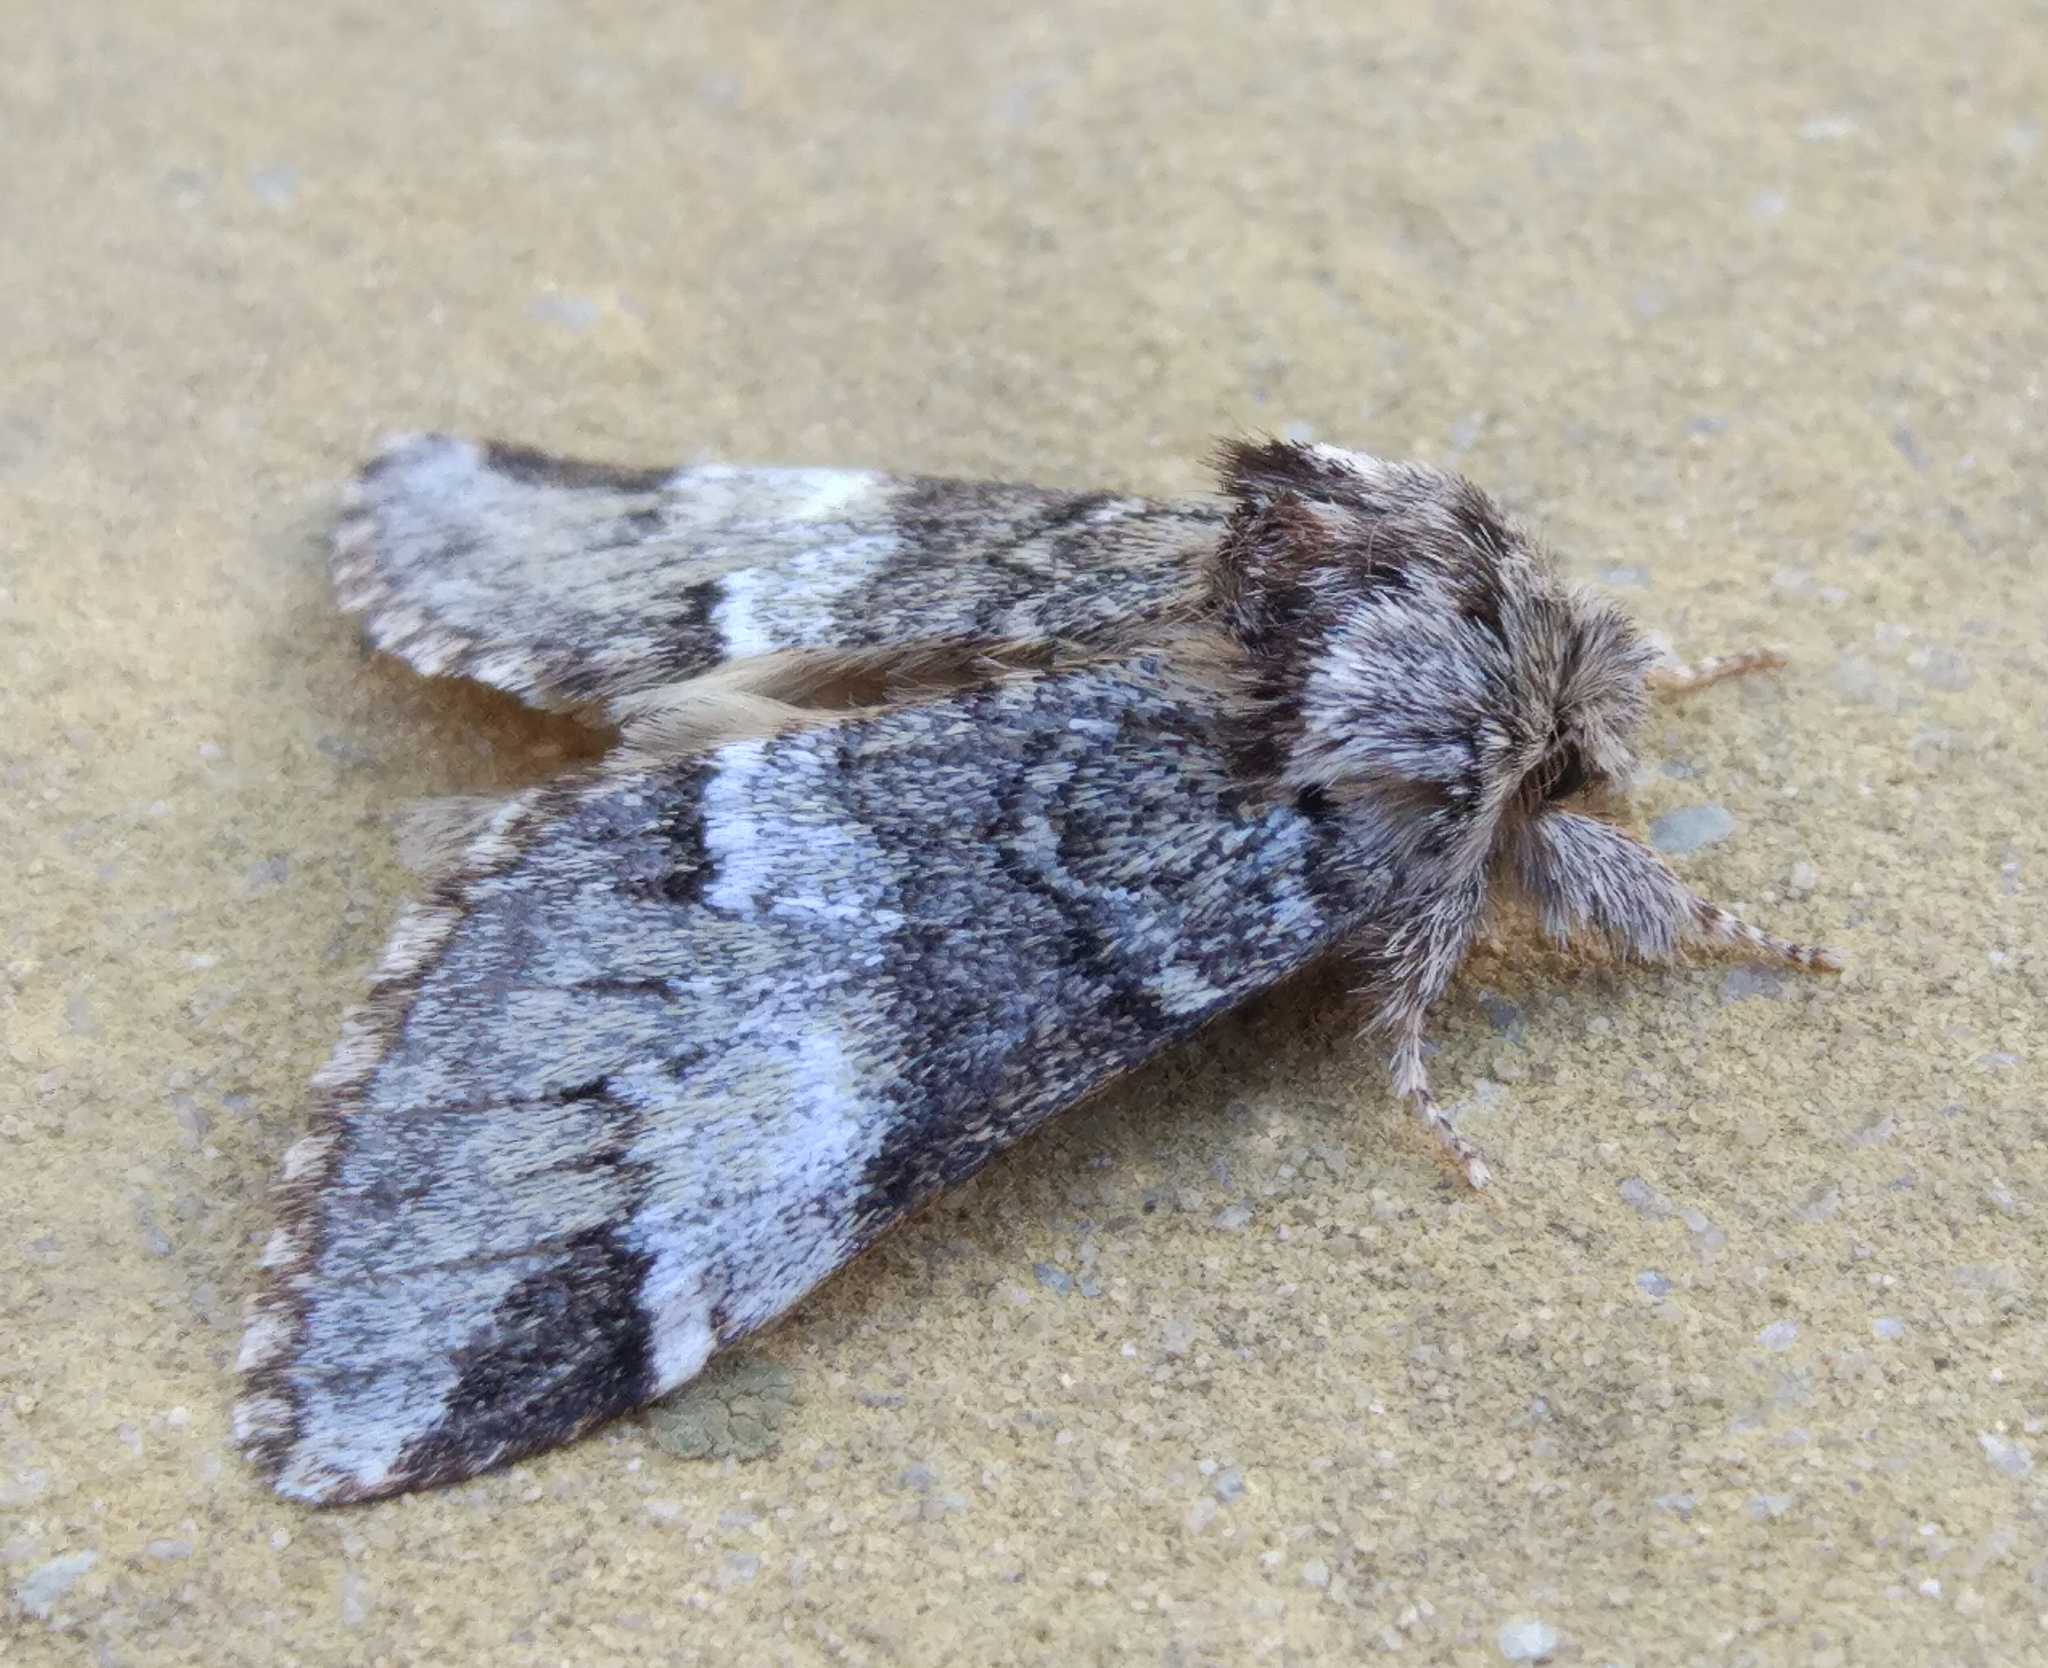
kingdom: Animalia
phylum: Arthropoda
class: Insecta
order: Lepidoptera
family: Notodontidae
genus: Drymonia
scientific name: Drymonia dodonaea
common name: Marbled brown
